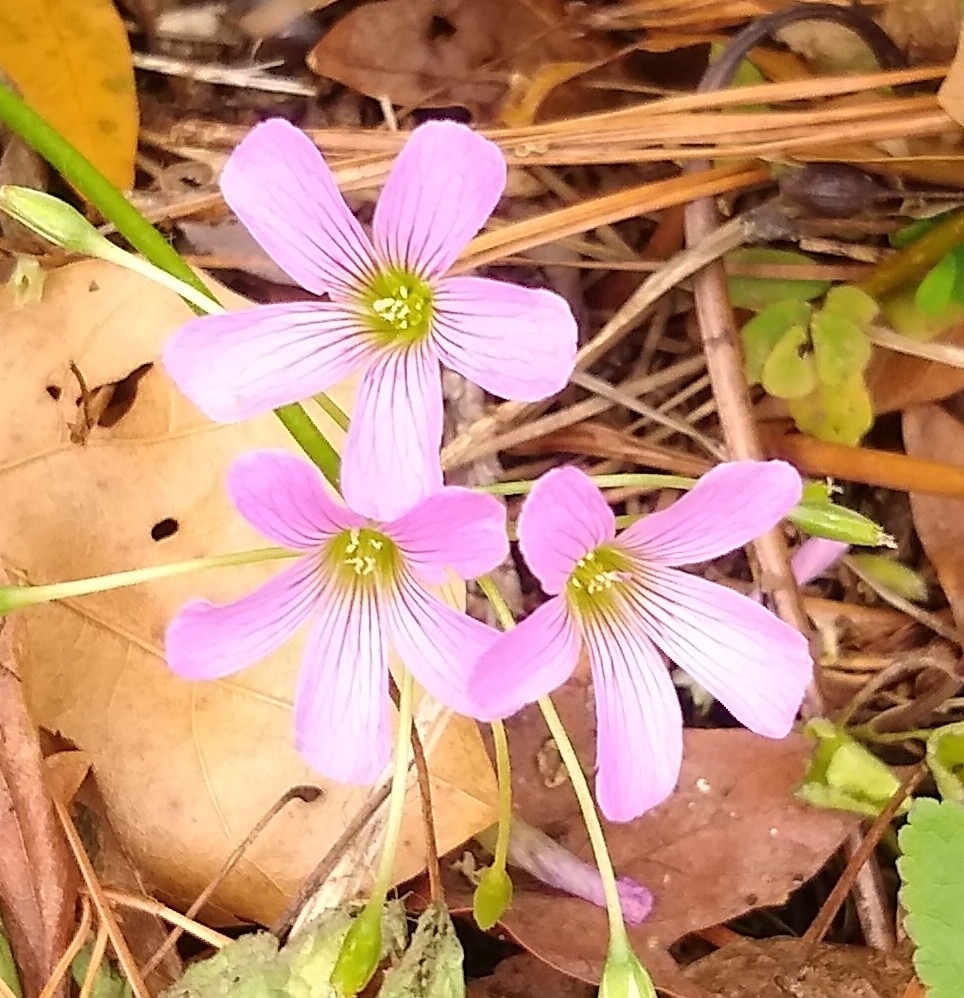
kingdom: Plantae
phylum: Tracheophyta
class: Magnoliopsida
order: Oxalidales
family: Oxalidaceae
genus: Oxalis
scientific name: Oxalis debilis
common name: Large-flowered pink-sorrel
